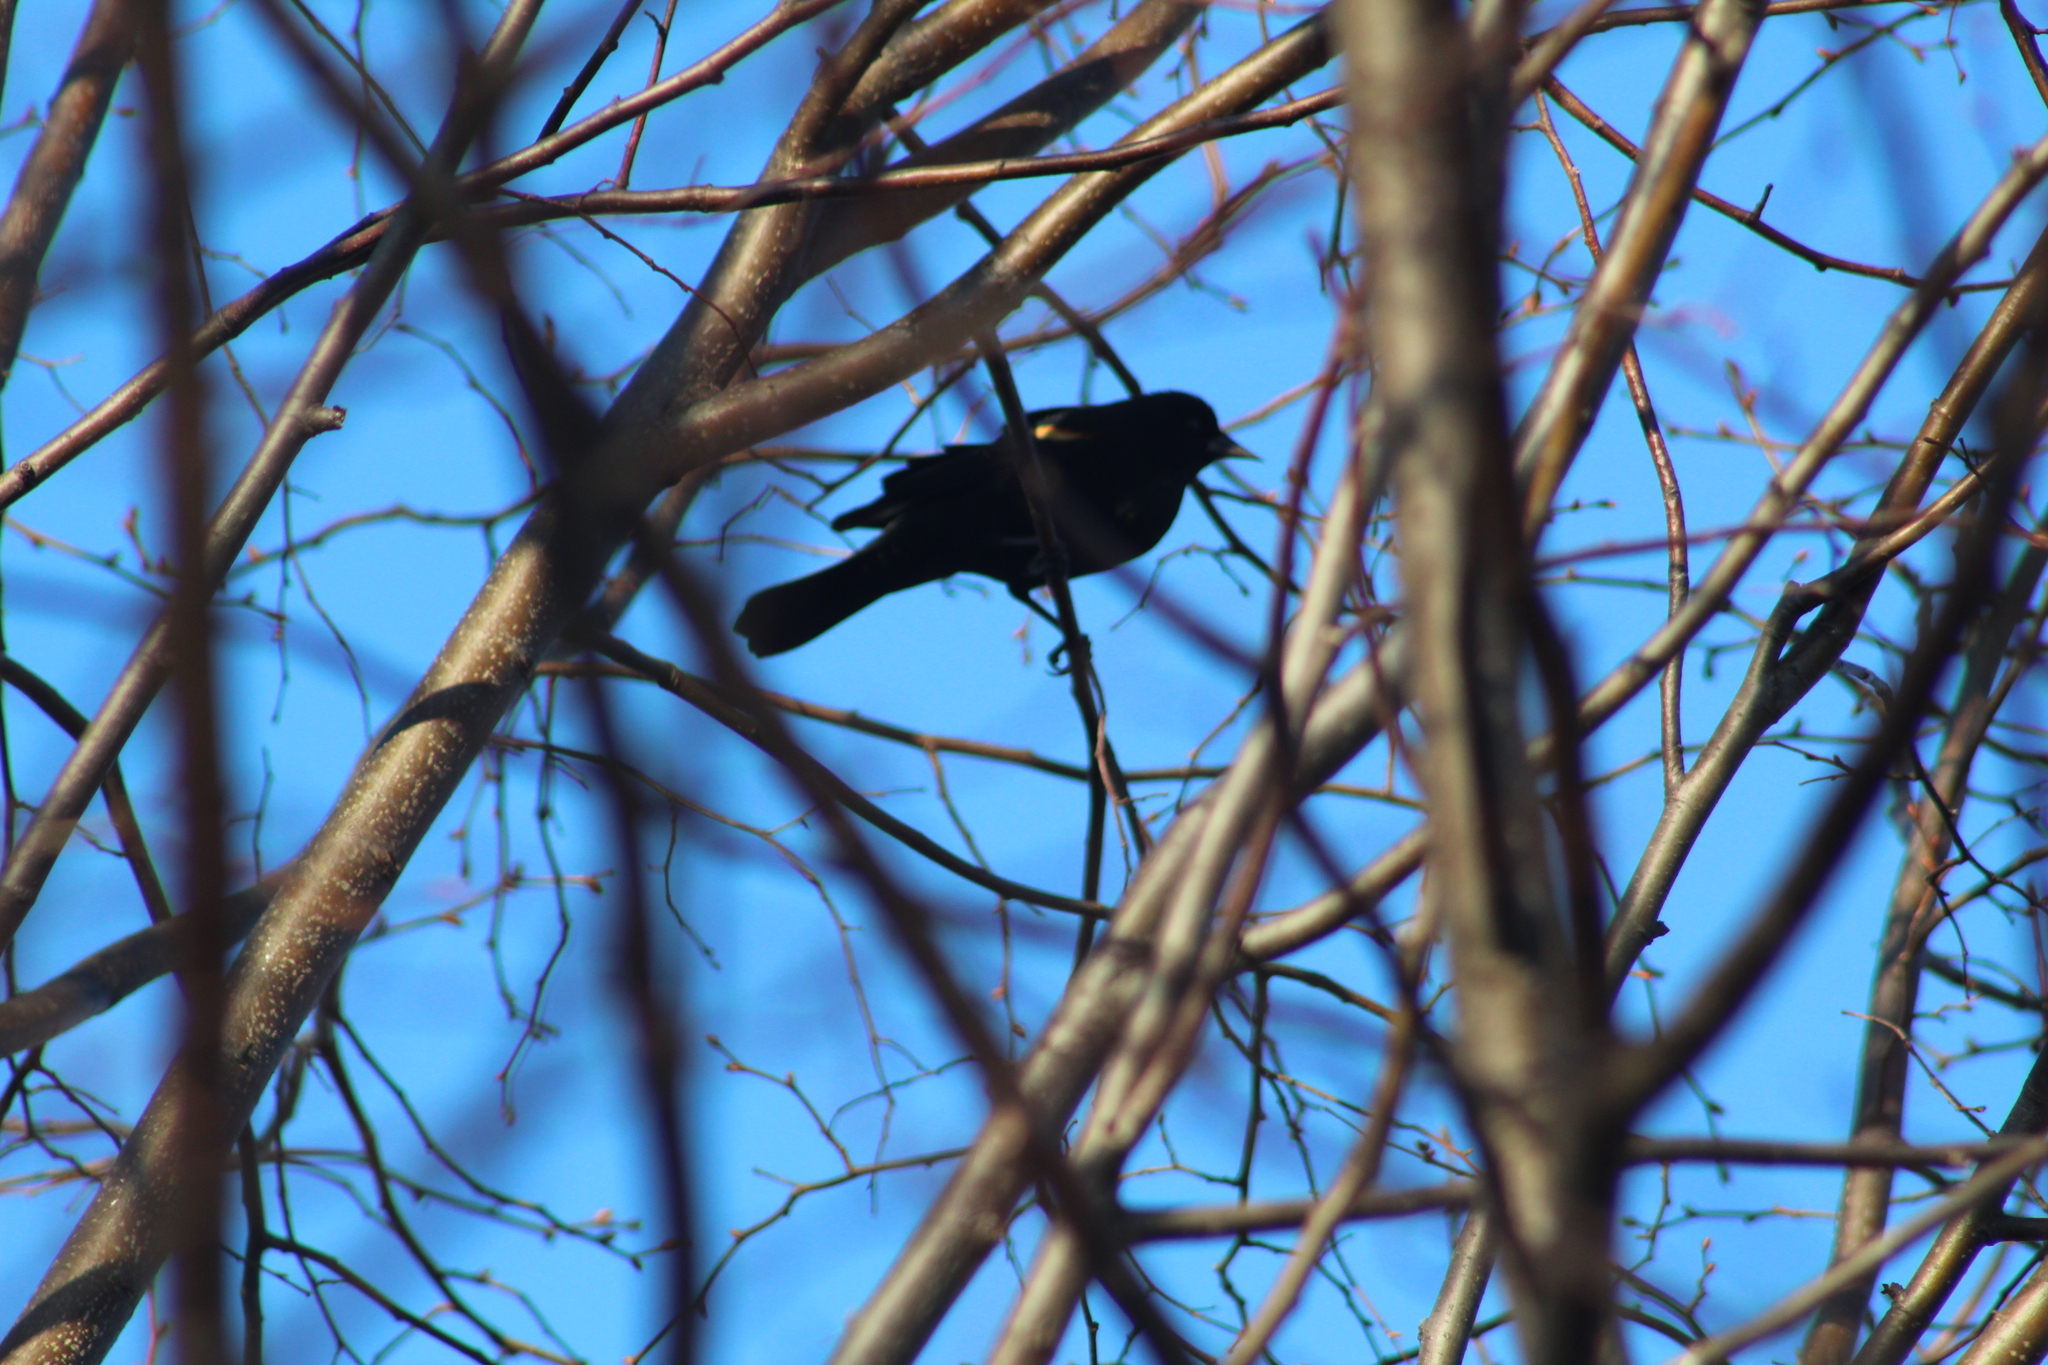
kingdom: Animalia
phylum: Chordata
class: Aves
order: Passeriformes
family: Icteridae
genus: Agelaius
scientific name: Agelaius phoeniceus
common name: Red-winged blackbird
